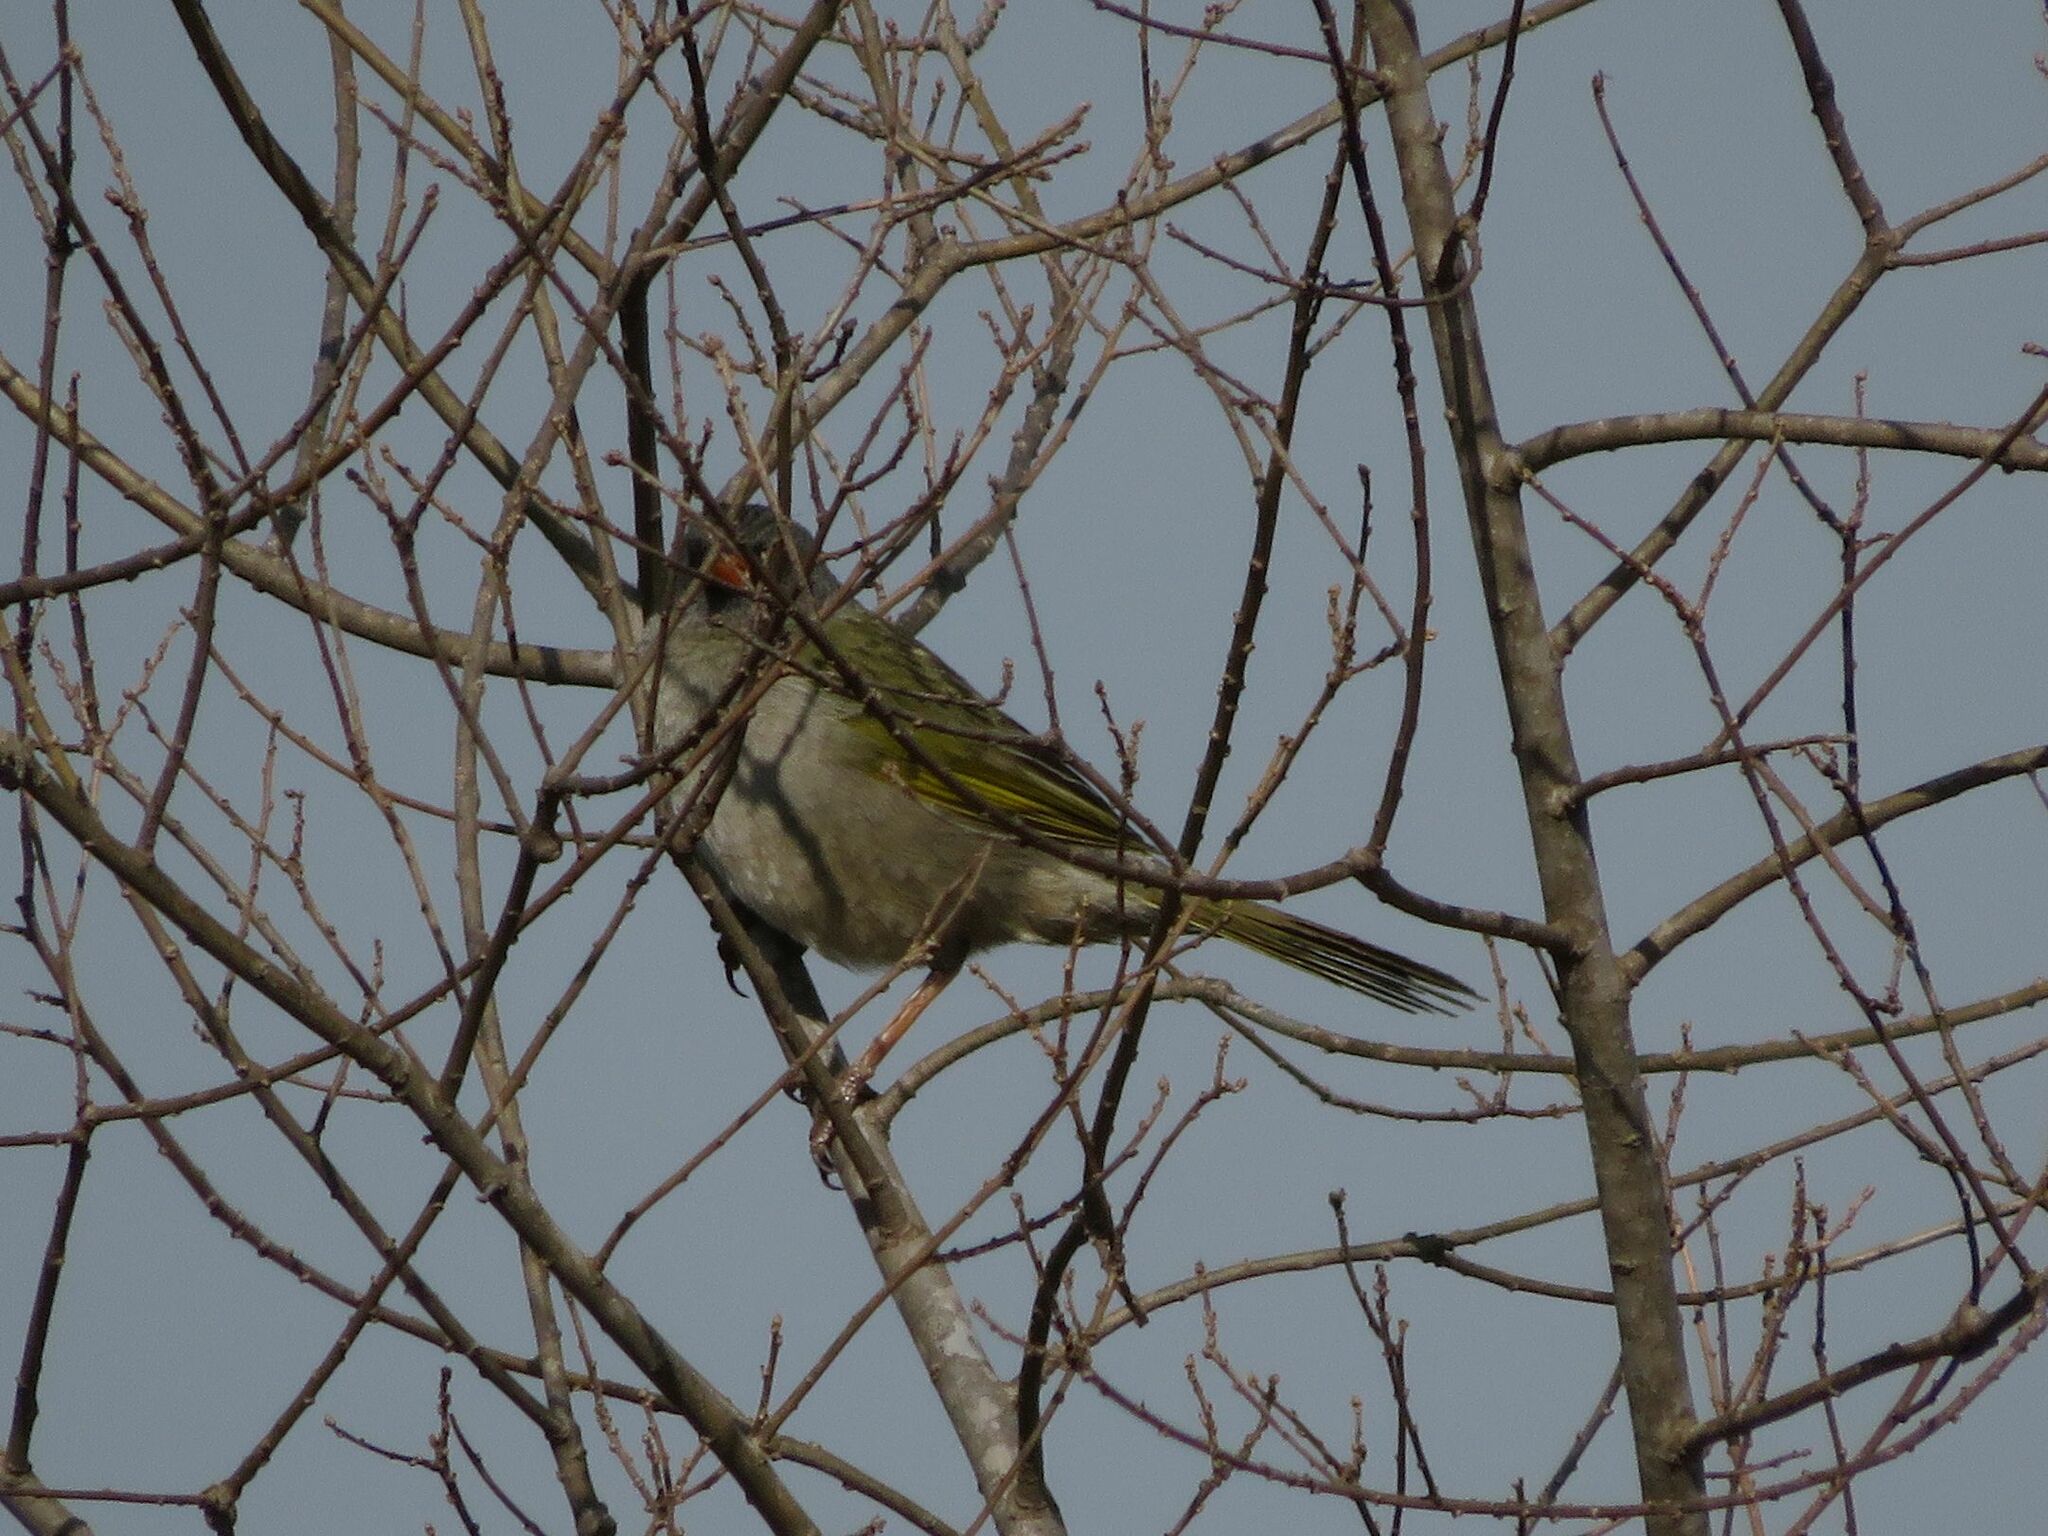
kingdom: Animalia
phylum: Chordata
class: Aves
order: Passeriformes
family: Thraupidae
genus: Embernagra
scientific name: Embernagra platensis
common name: Pampa finch
